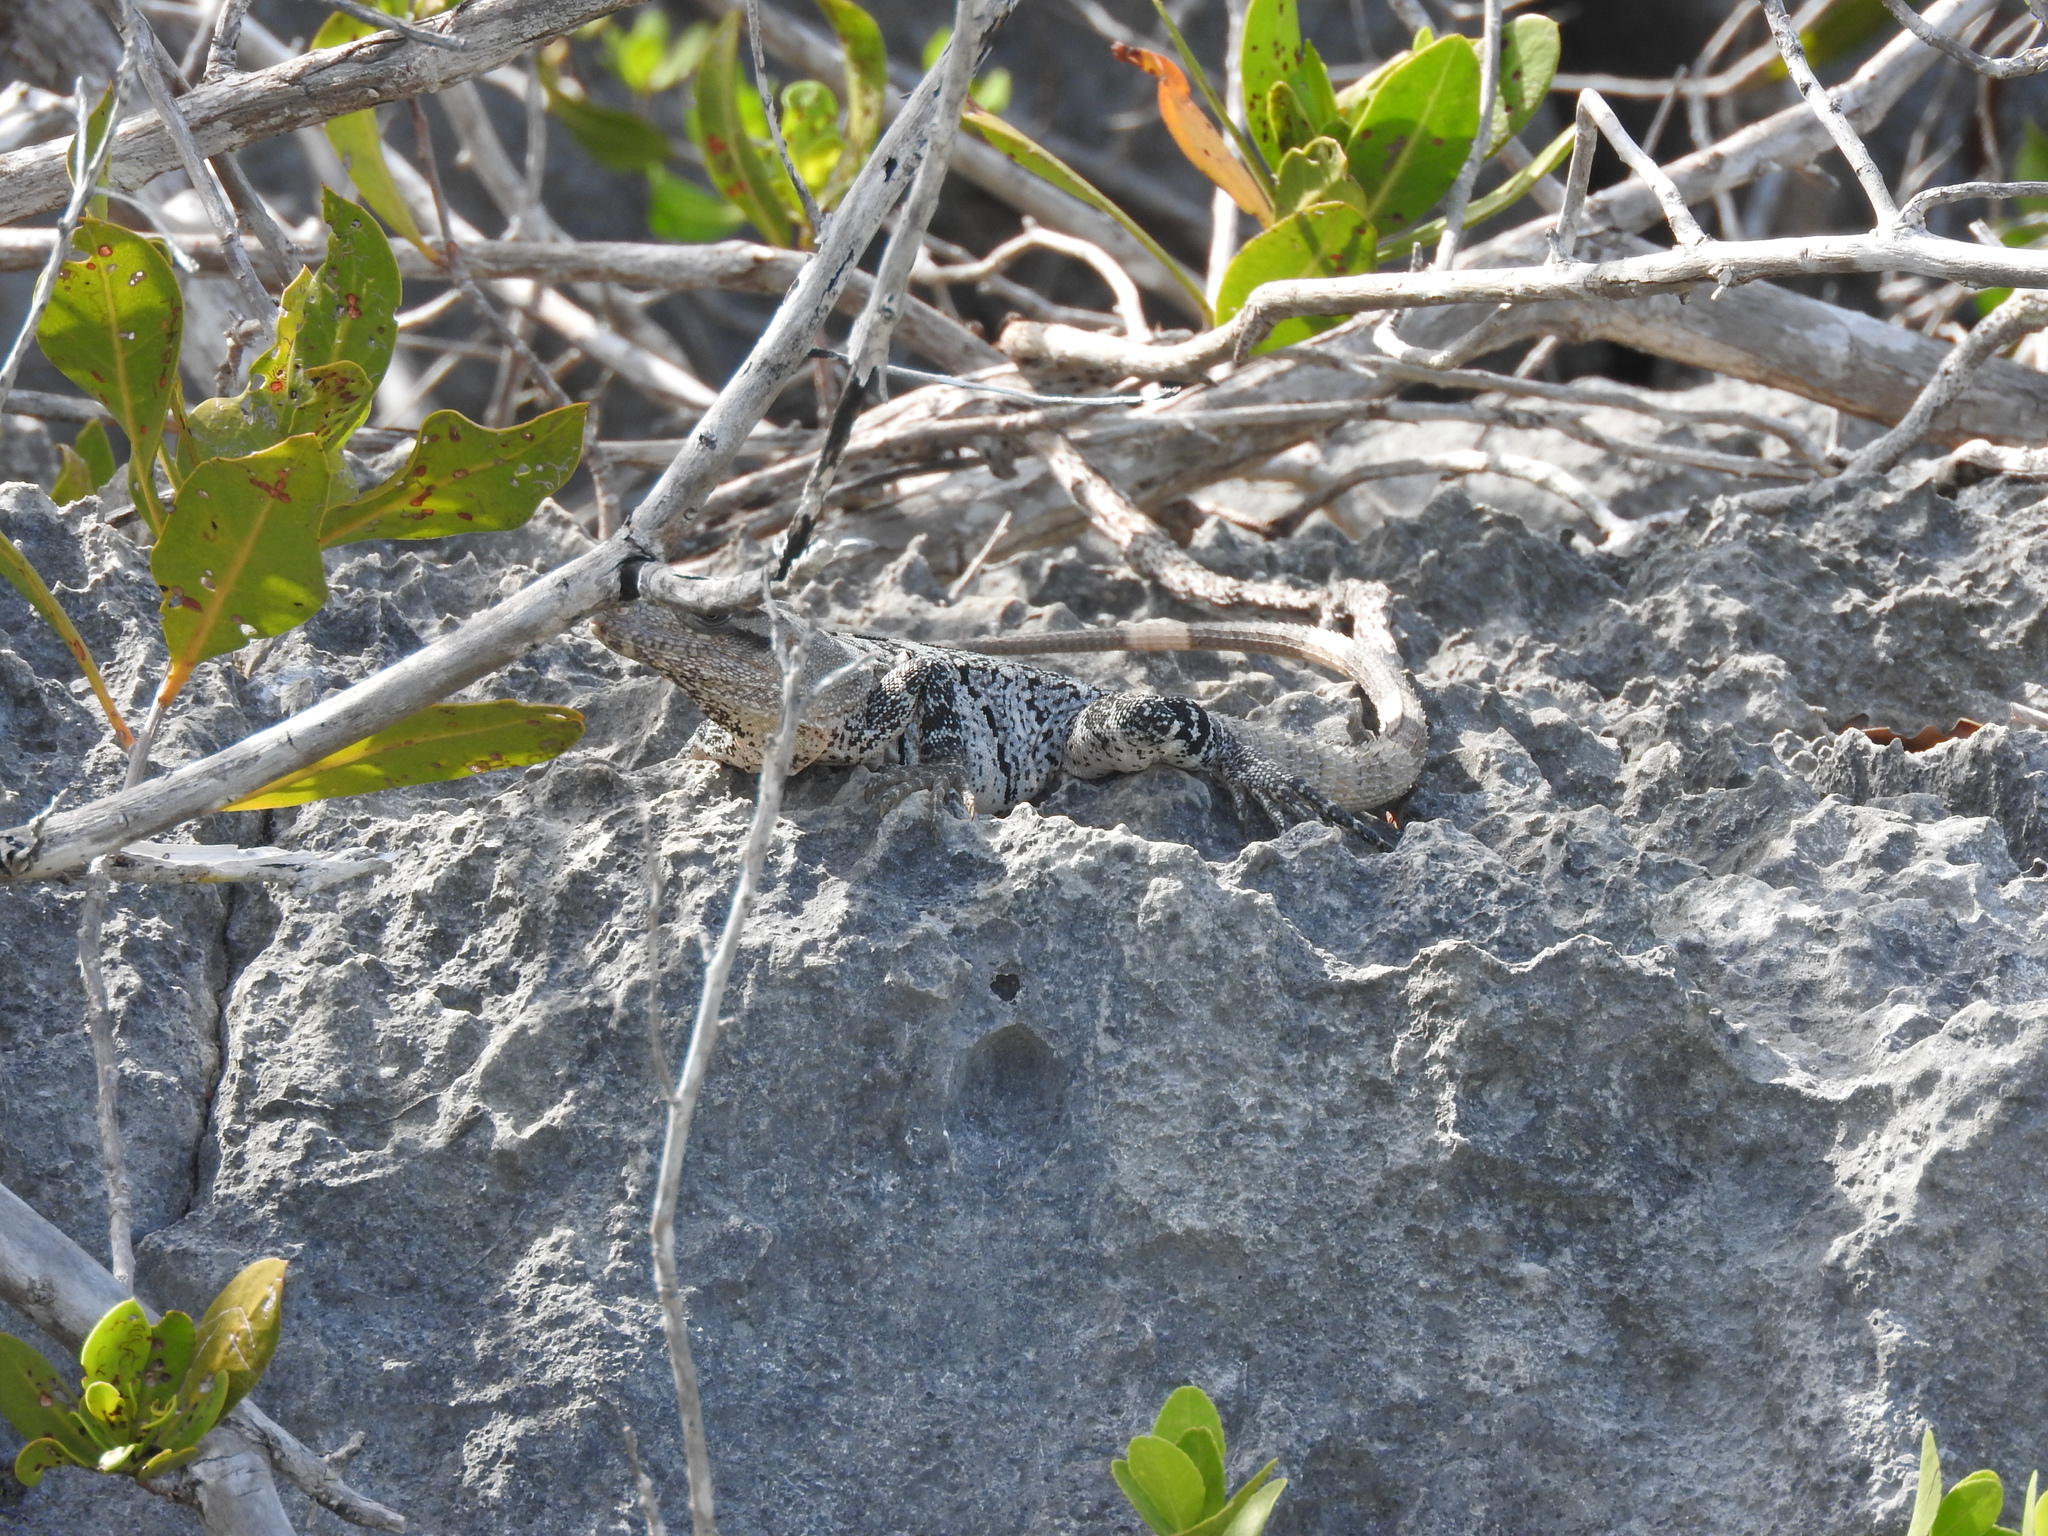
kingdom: Animalia
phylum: Chordata
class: Squamata
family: Iguanidae
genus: Ctenosaura
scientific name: Ctenosaura similis
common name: Black spiny-tailed iguana
